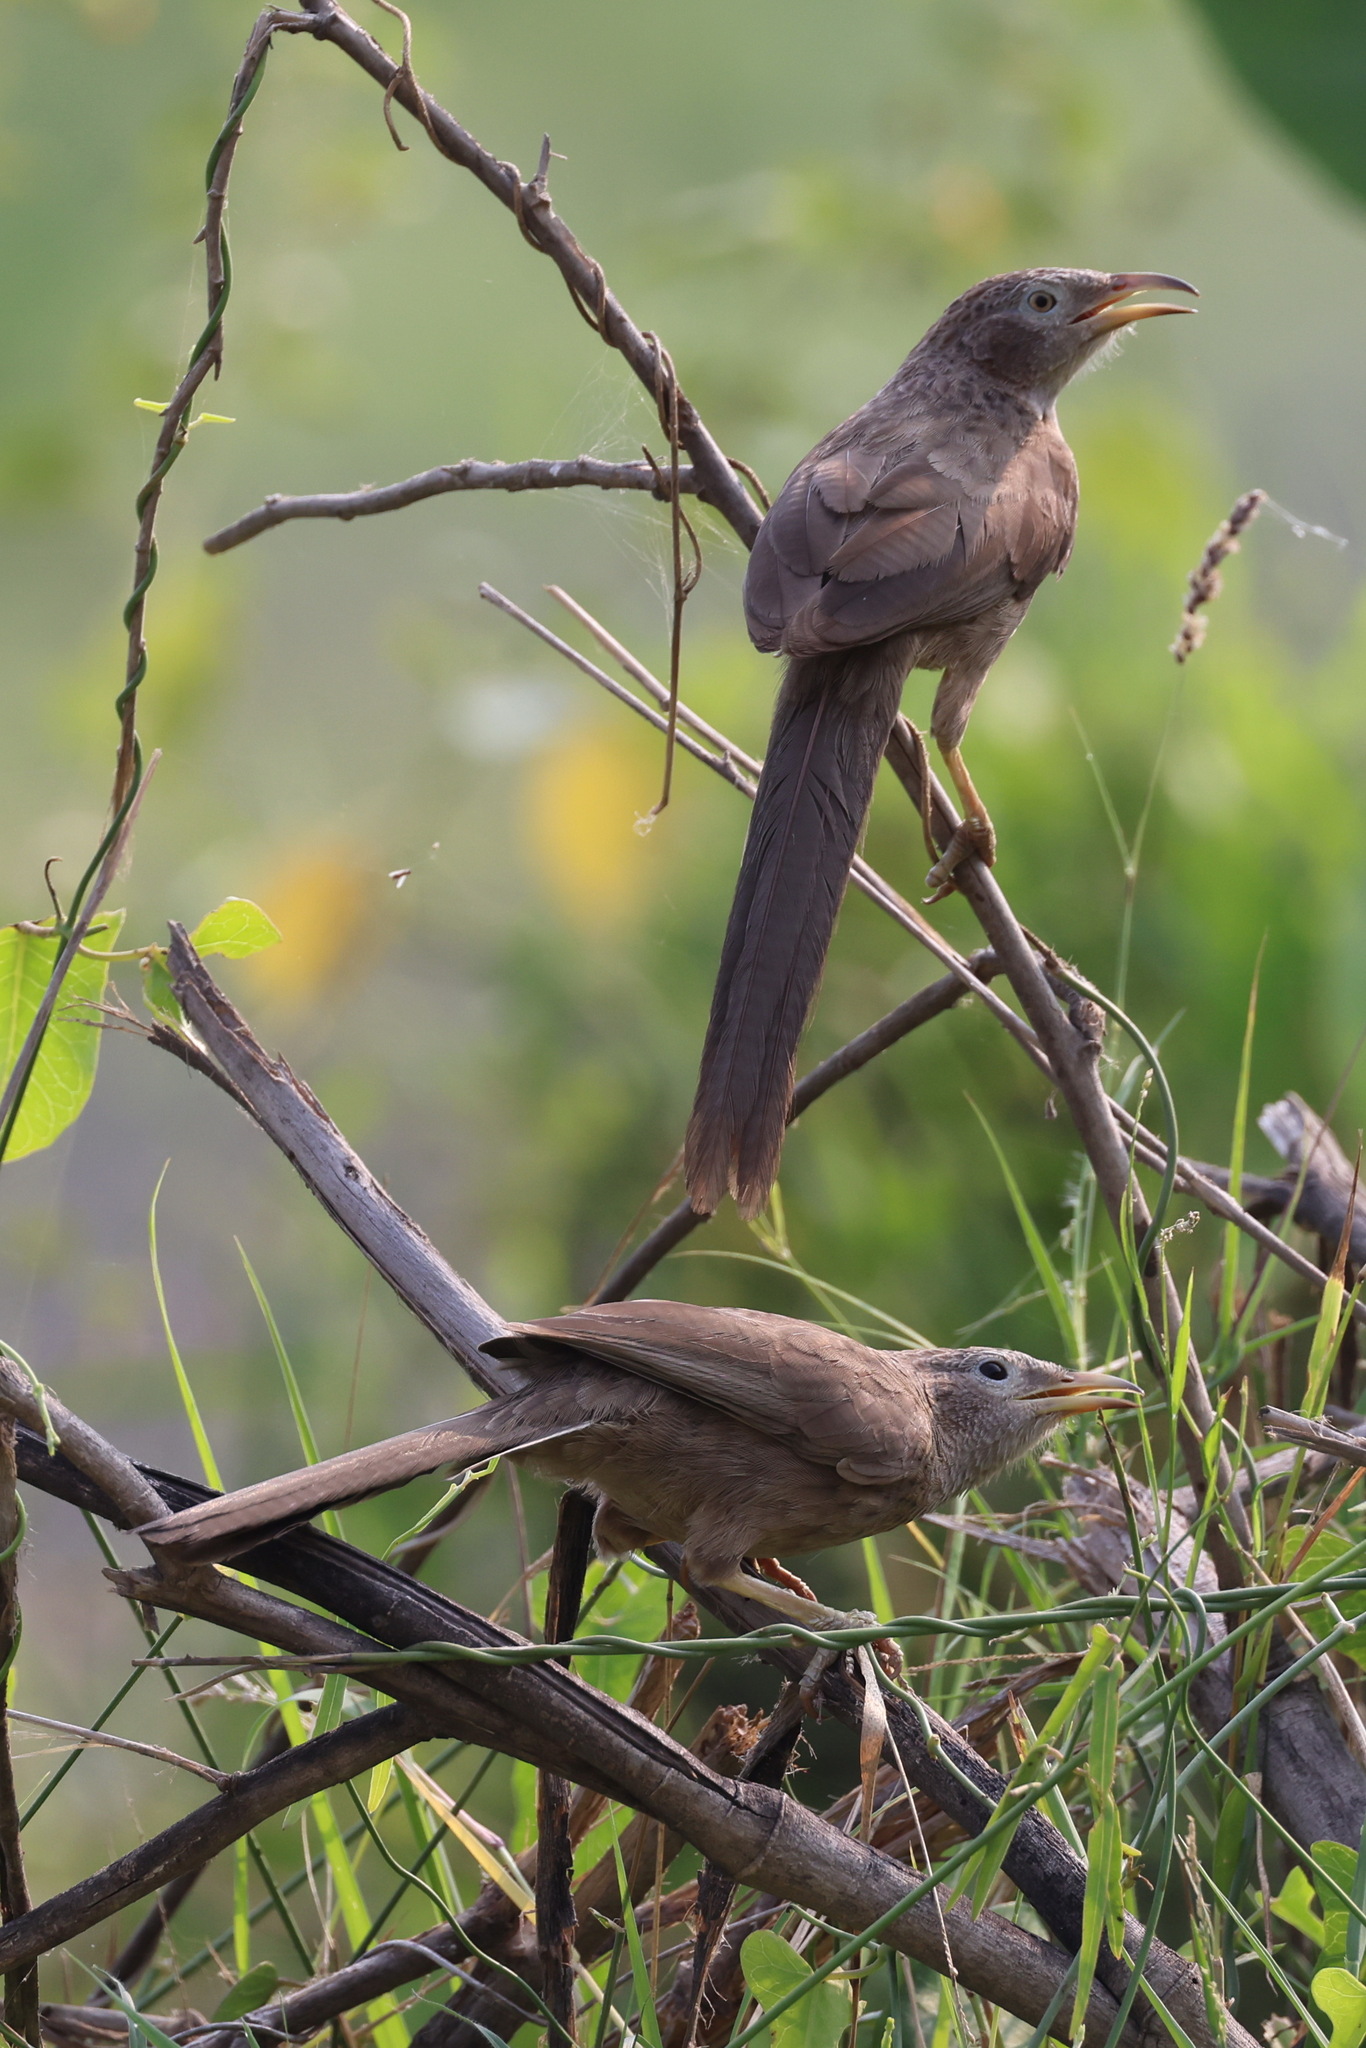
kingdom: Animalia
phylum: Chordata
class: Aves
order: Passeriformes
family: Leiothrichidae
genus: Turdoides
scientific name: Turdoides squamiceps
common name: Arabian babbler
